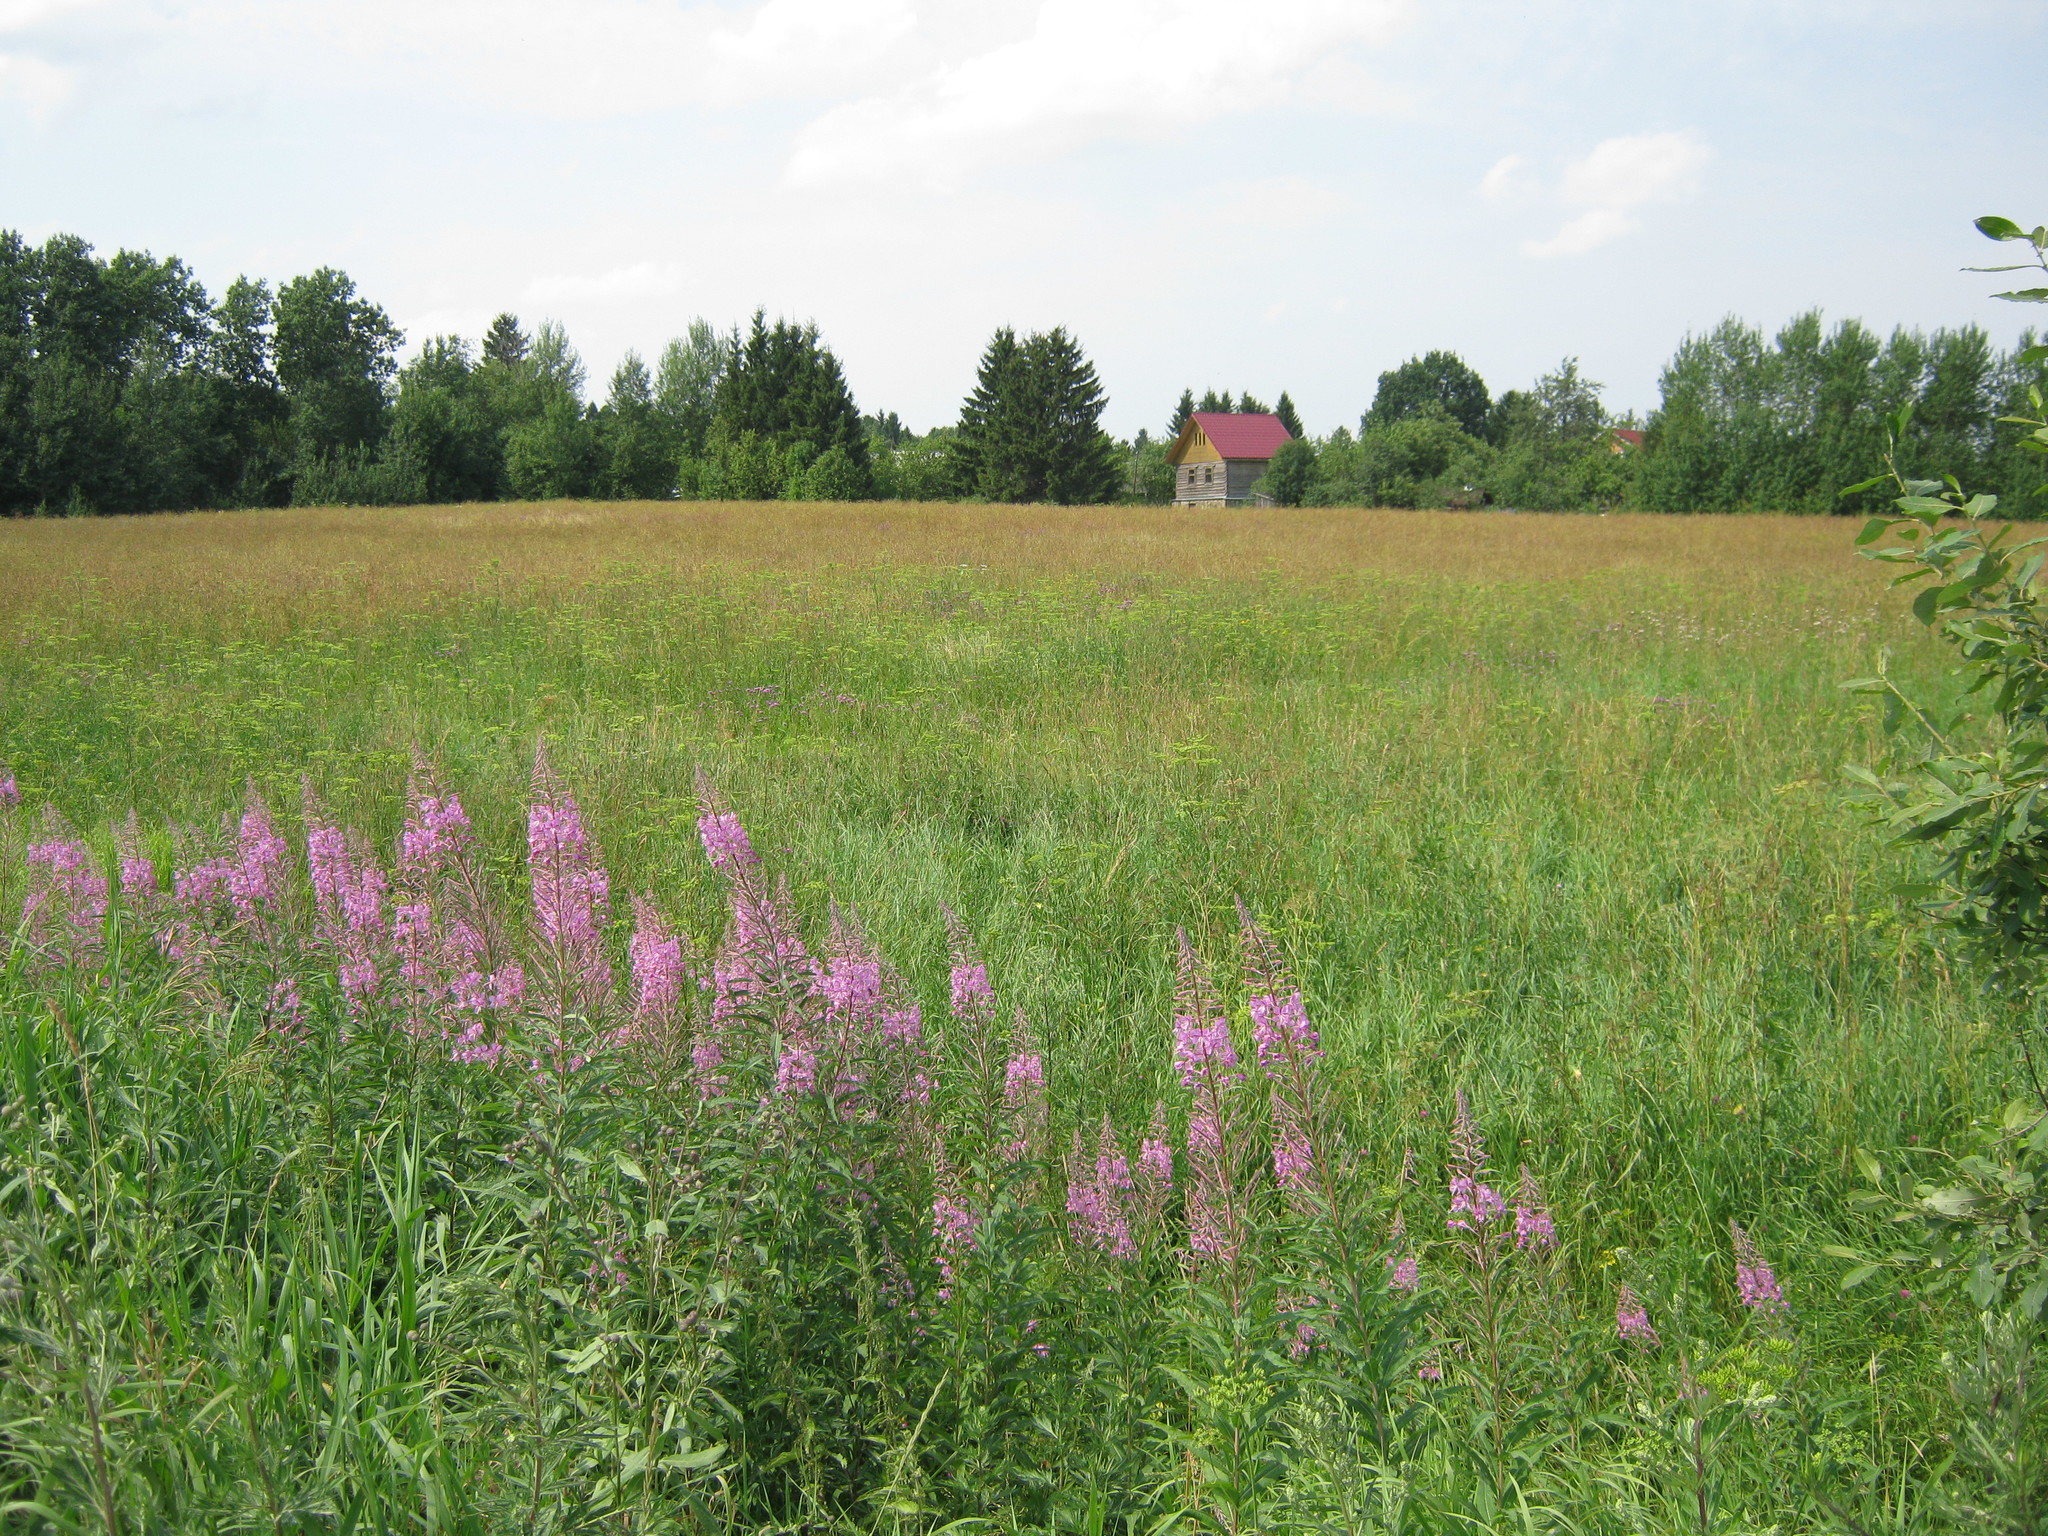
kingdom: Plantae
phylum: Tracheophyta
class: Magnoliopsida
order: Myrtales
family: Onagraceae
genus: Chamaenerion
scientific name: Chamaenerion angustifolium
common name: Fireweed
